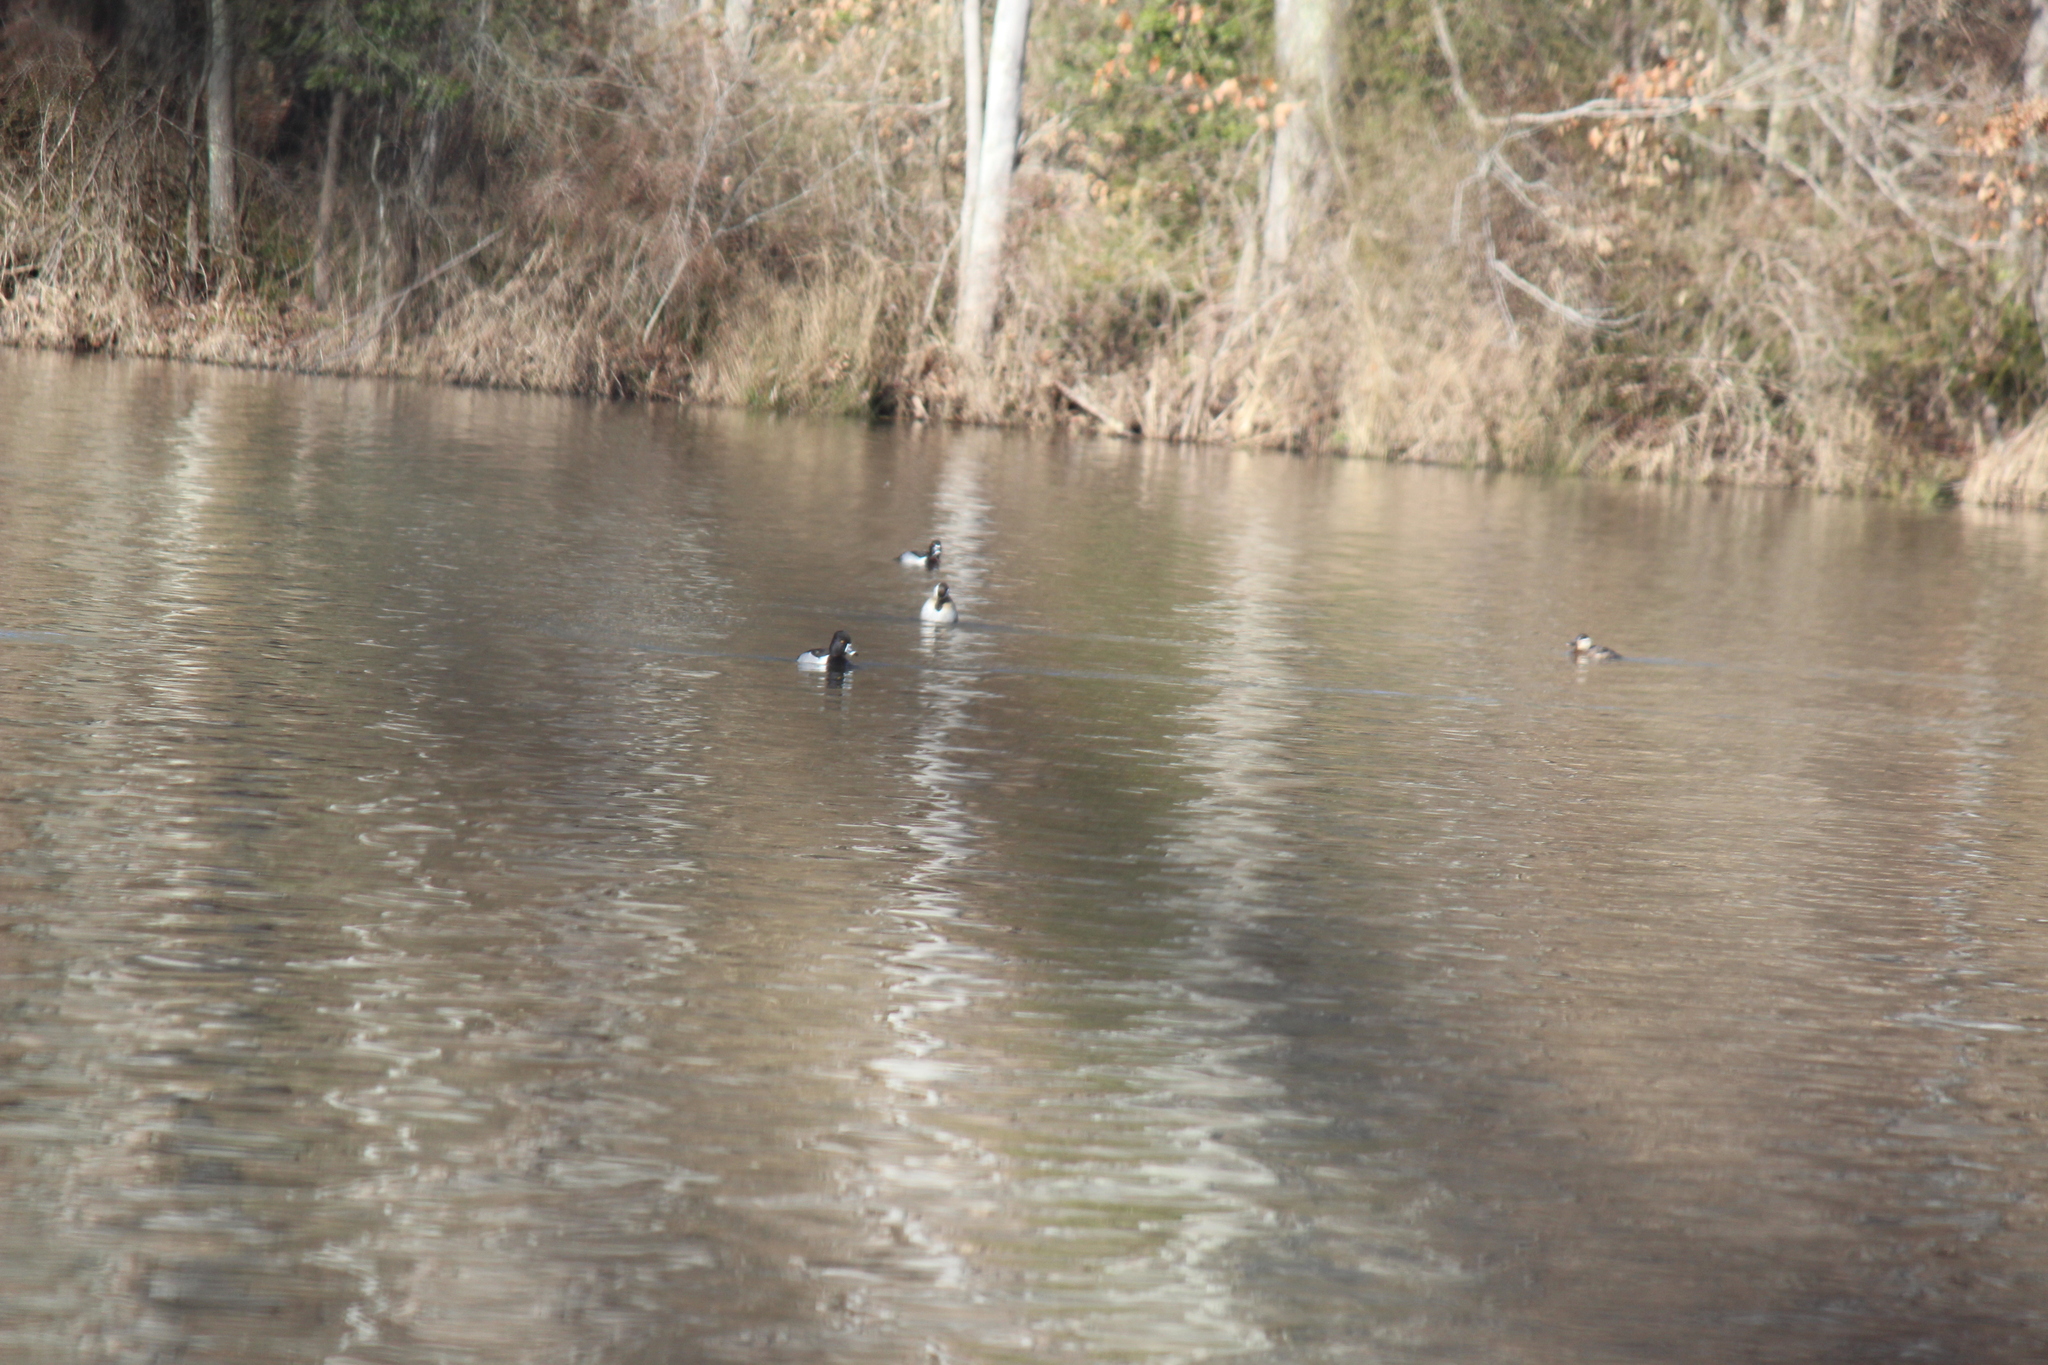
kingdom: Animalia
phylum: Chordata
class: Aves
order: Anseriformes
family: Anatidae
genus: Aythya
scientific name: Aythya collaris
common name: Ring-necked duck
